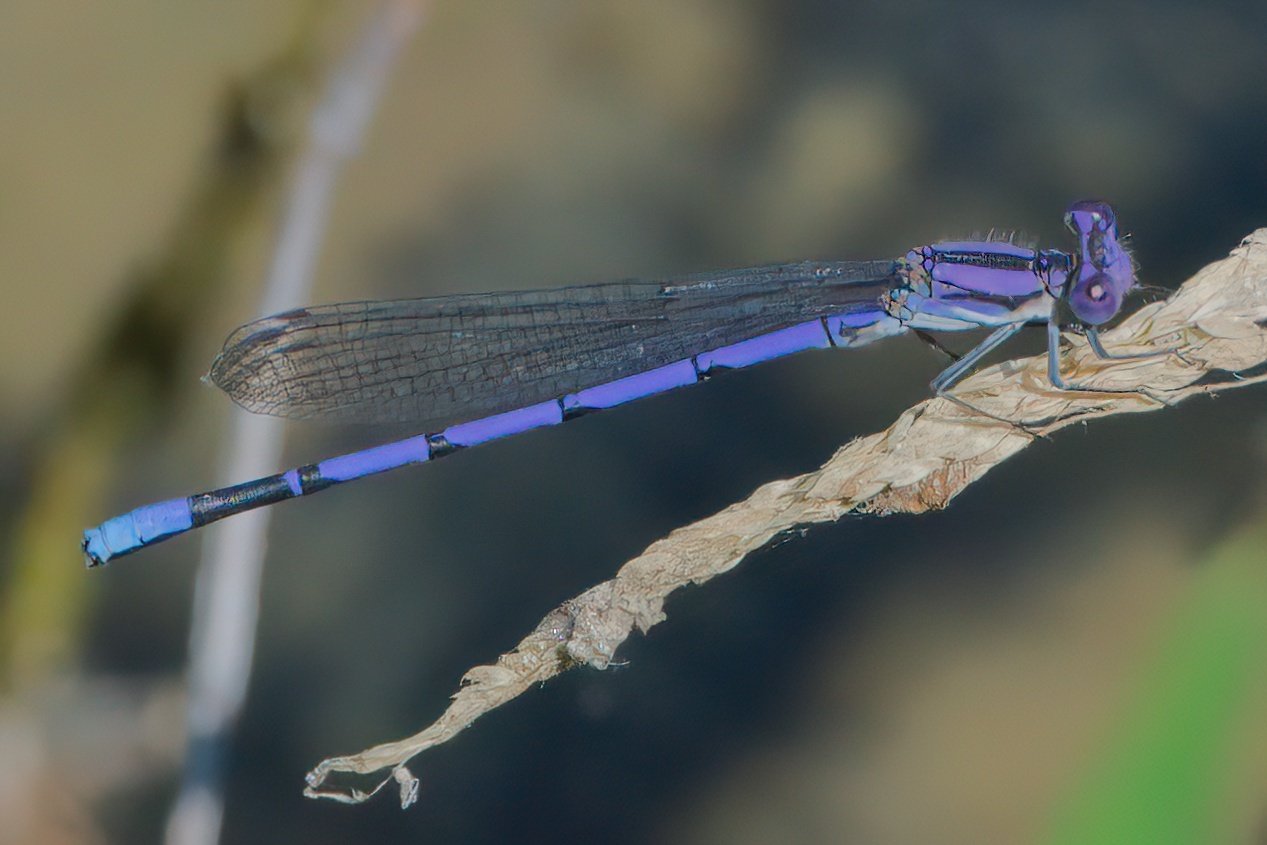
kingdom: Animalia
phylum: Arthropoda
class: Insecta
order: Odonata
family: Coenagrionidae
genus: Argia
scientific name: Argia fumipennis
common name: Variable dancer
